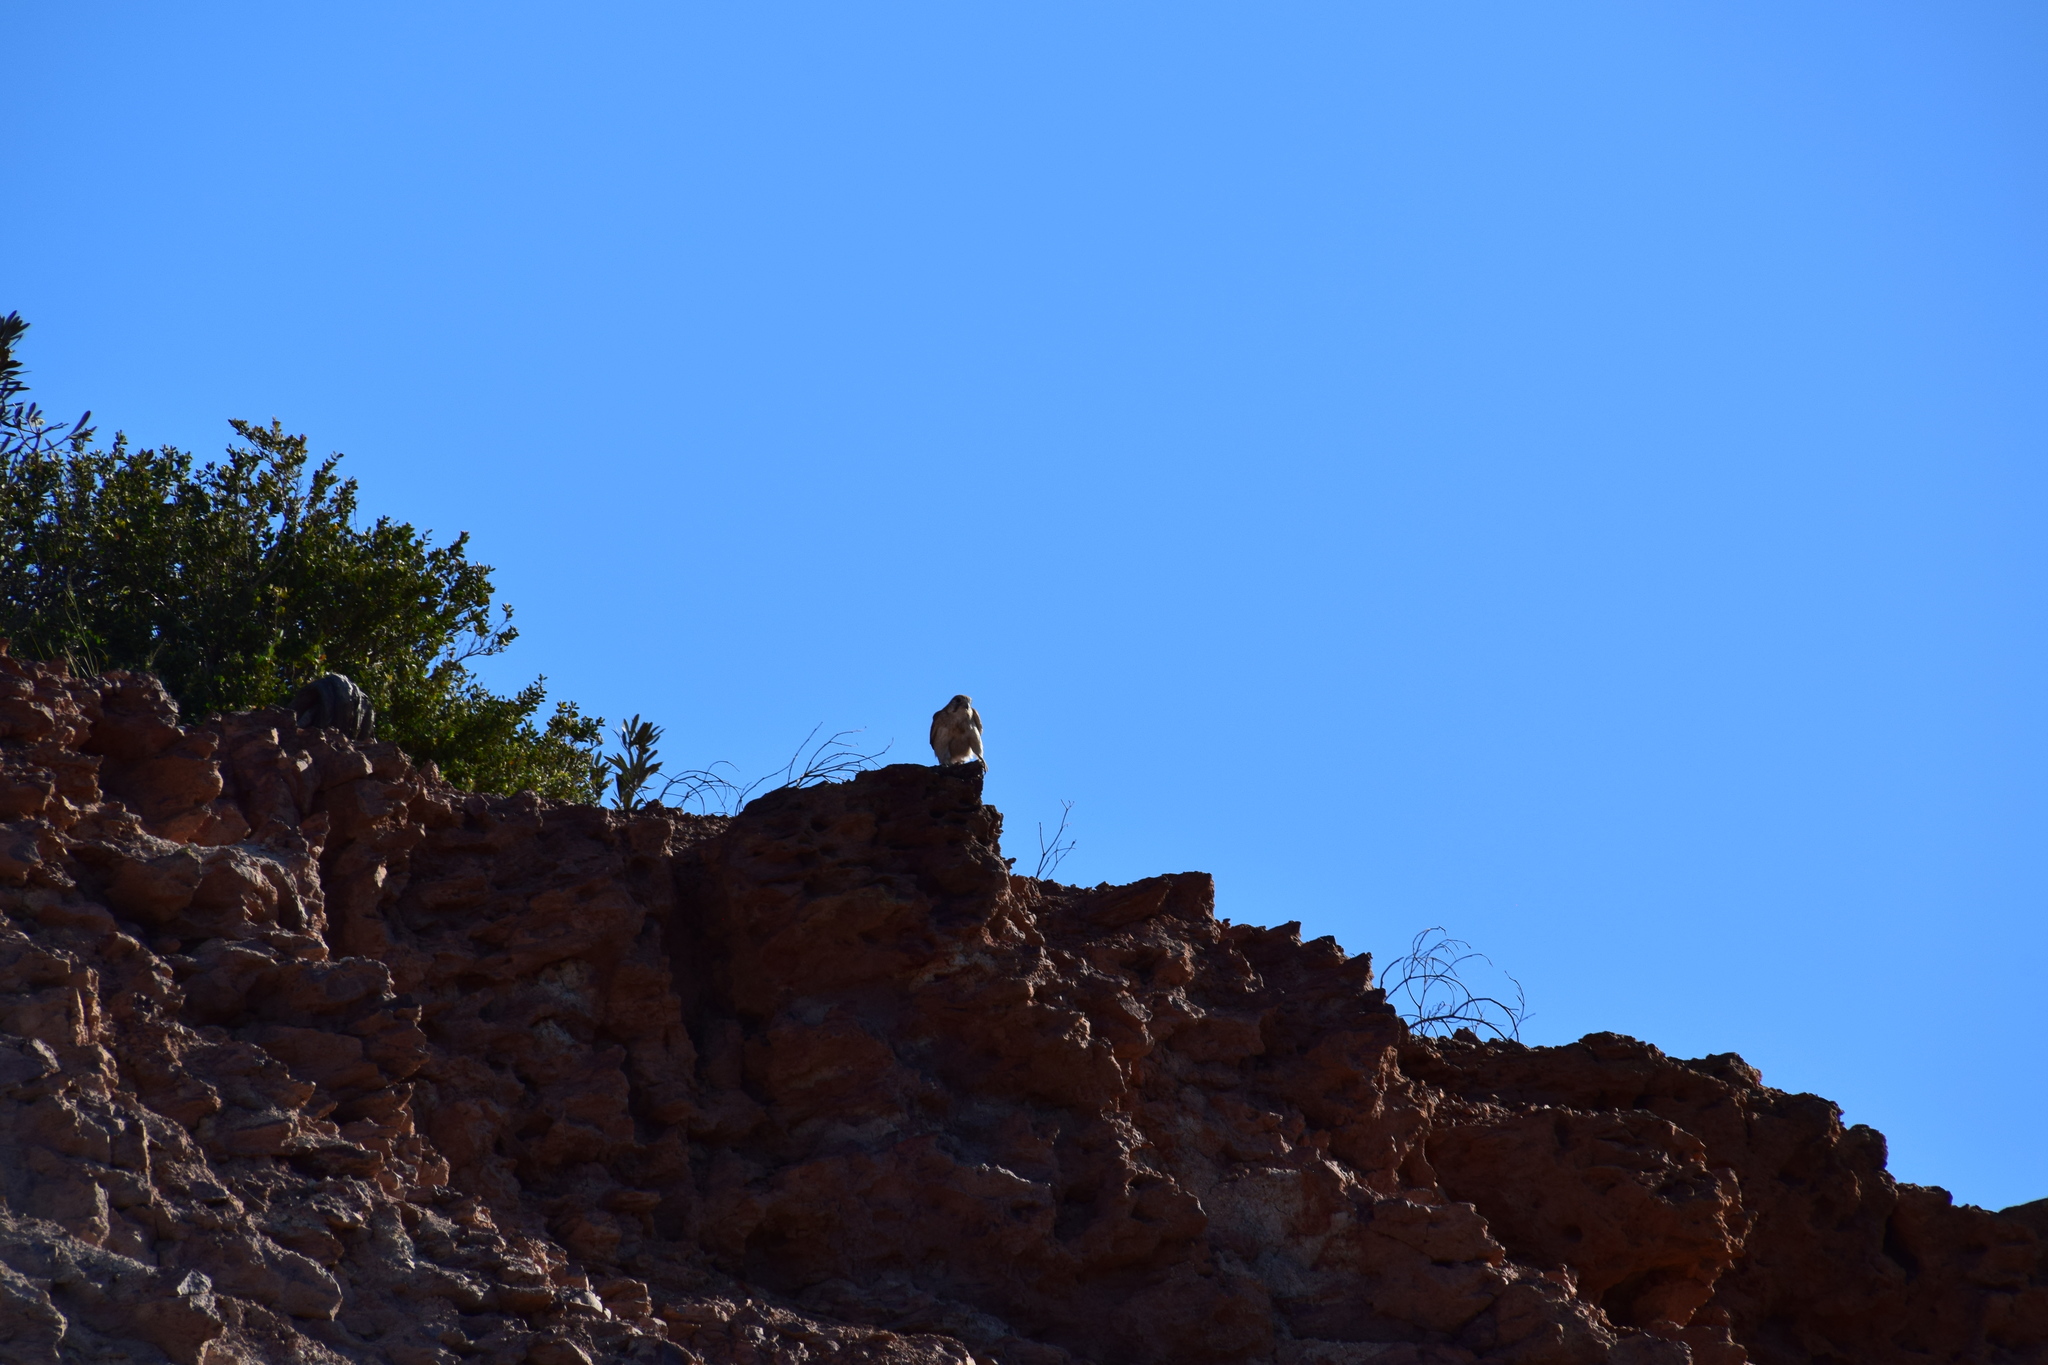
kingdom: Animalia
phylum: Chordata
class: Aves
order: Falconiformes
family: Falconidae
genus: Falco
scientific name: Falco cenchroides
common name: Nankeen kestrel
